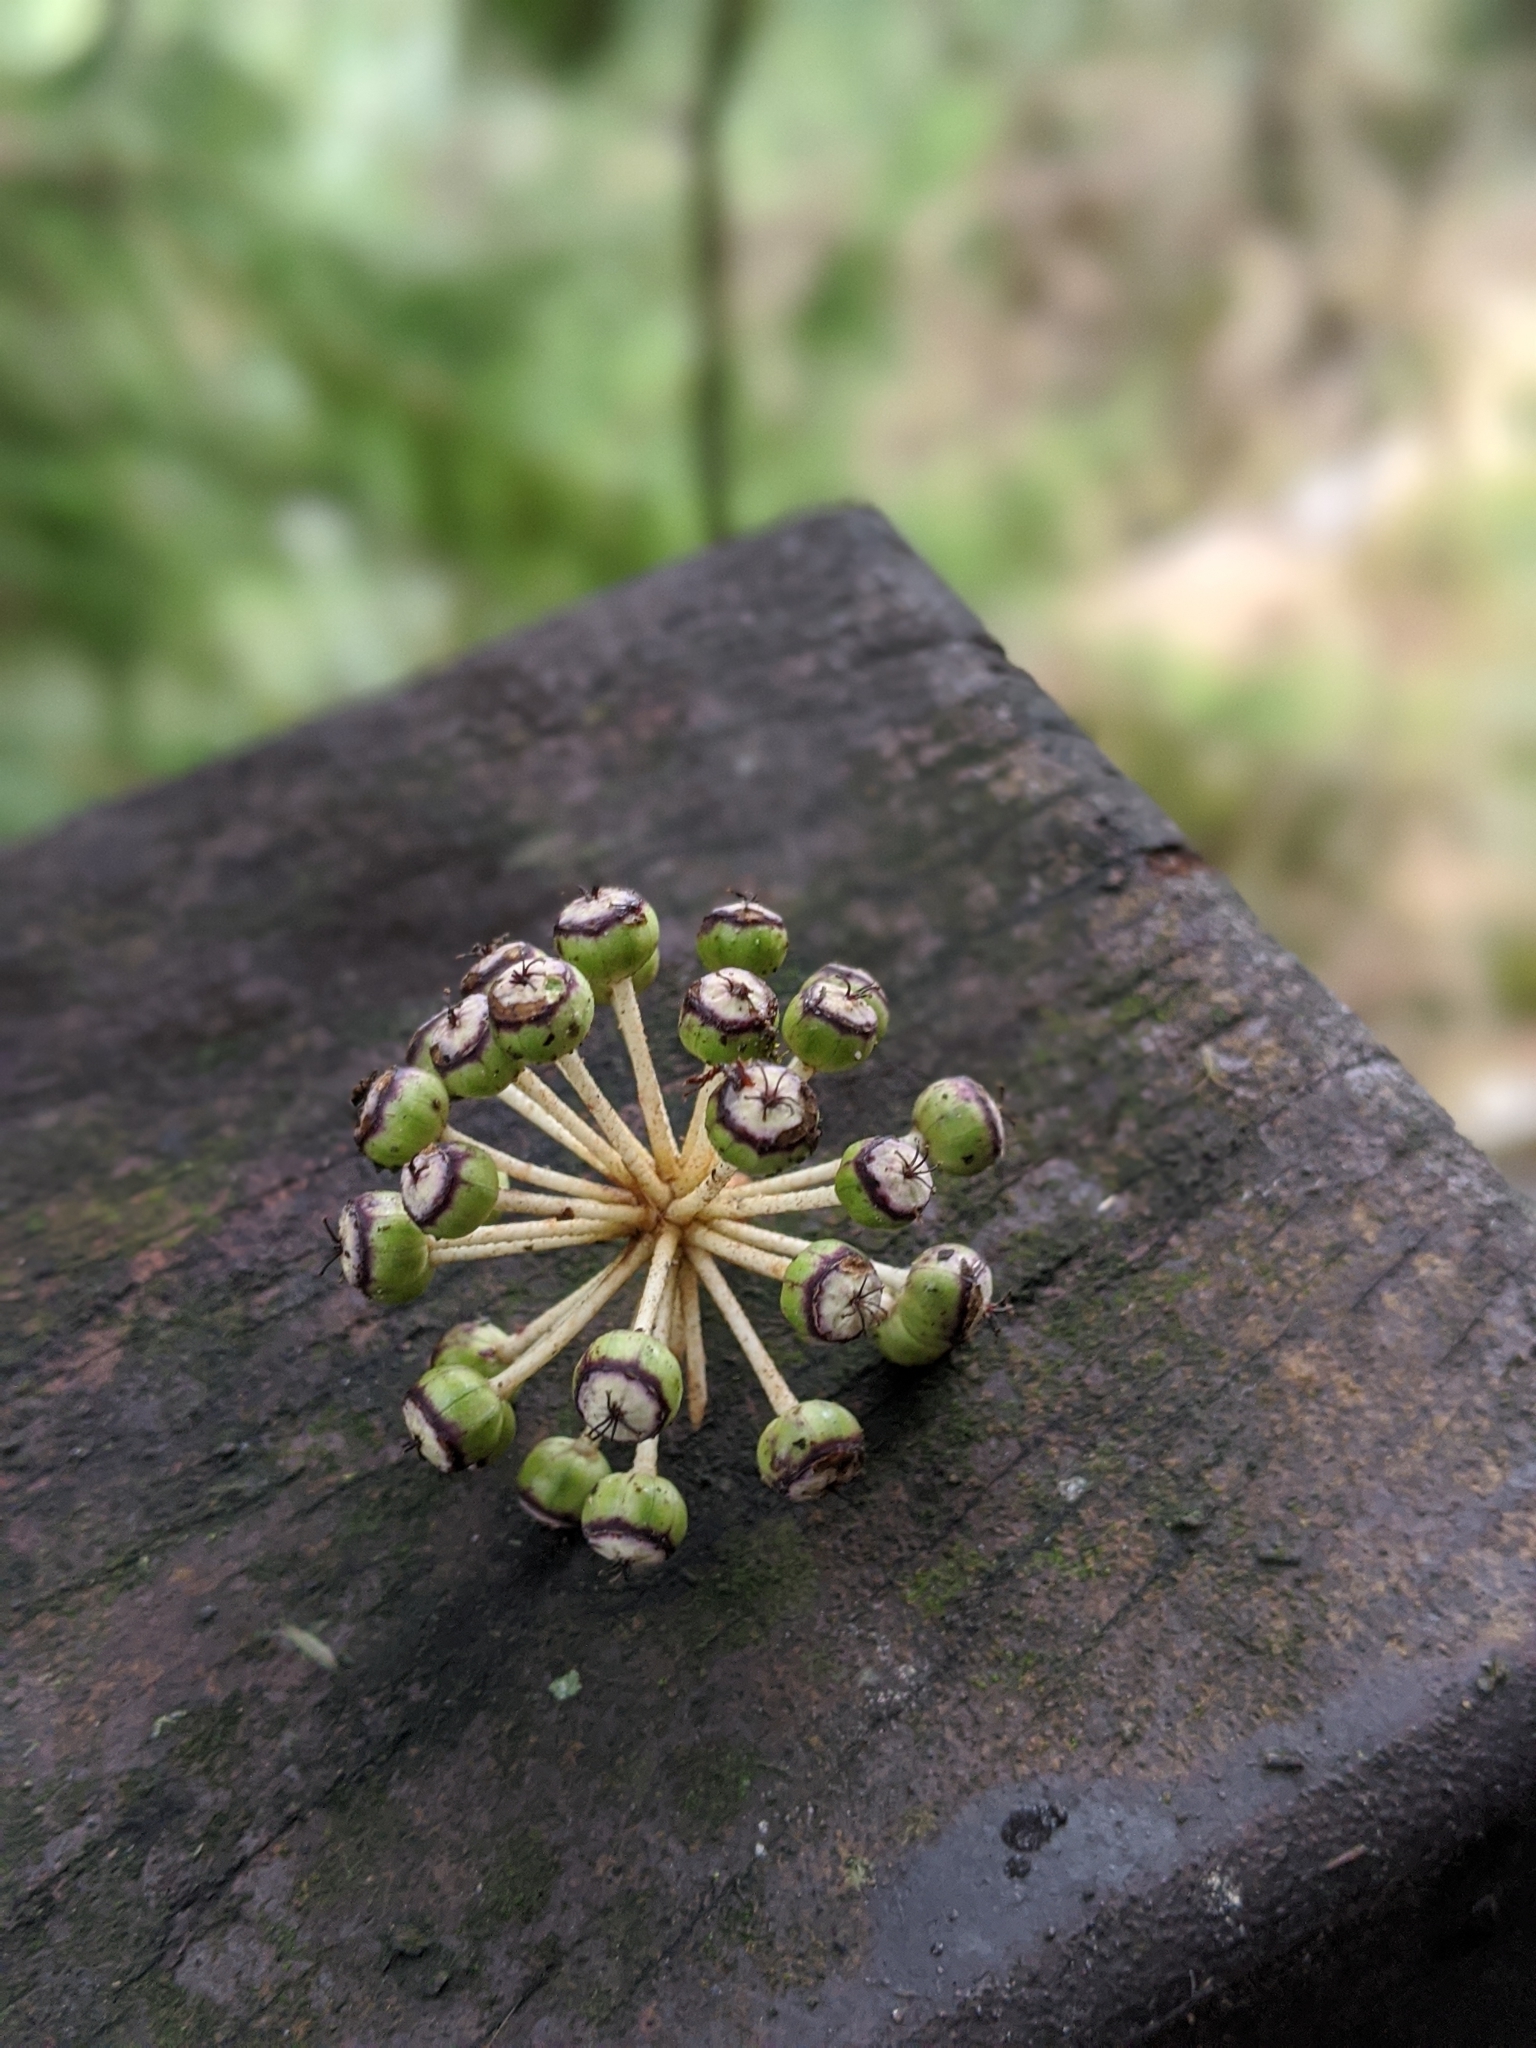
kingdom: Plantae
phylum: Tracheophyta
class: Magnoliopsida
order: Apiales
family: Araliaceae
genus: Fatsia
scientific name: Fatsia polycarpa
